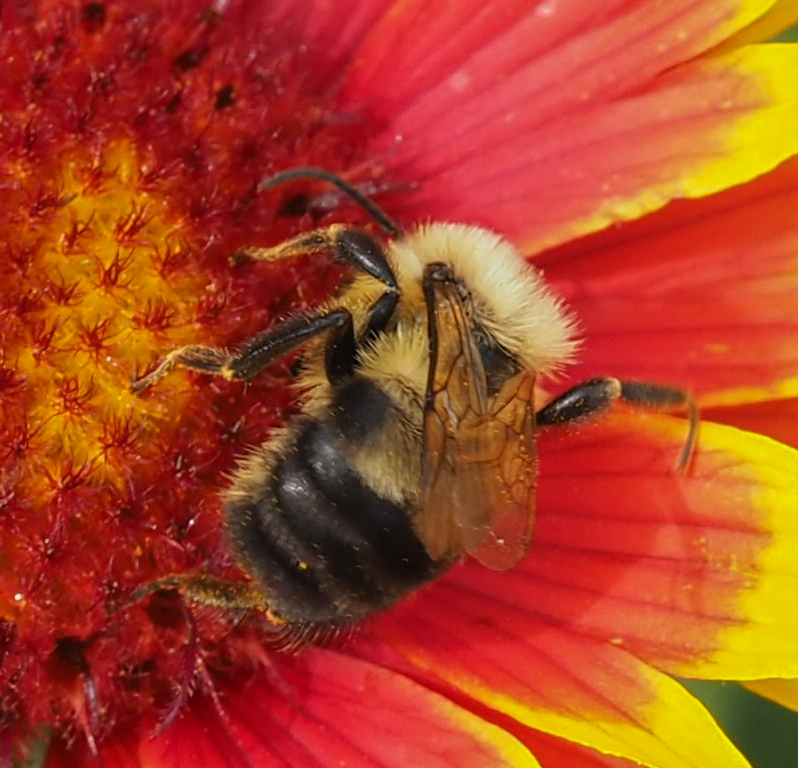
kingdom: Animalia
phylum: Arthropoda
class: Insecta
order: Hymenoptera
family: Apidae
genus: Bombus
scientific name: Bombus bimaculatus
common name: Two-spotted bumble bee
